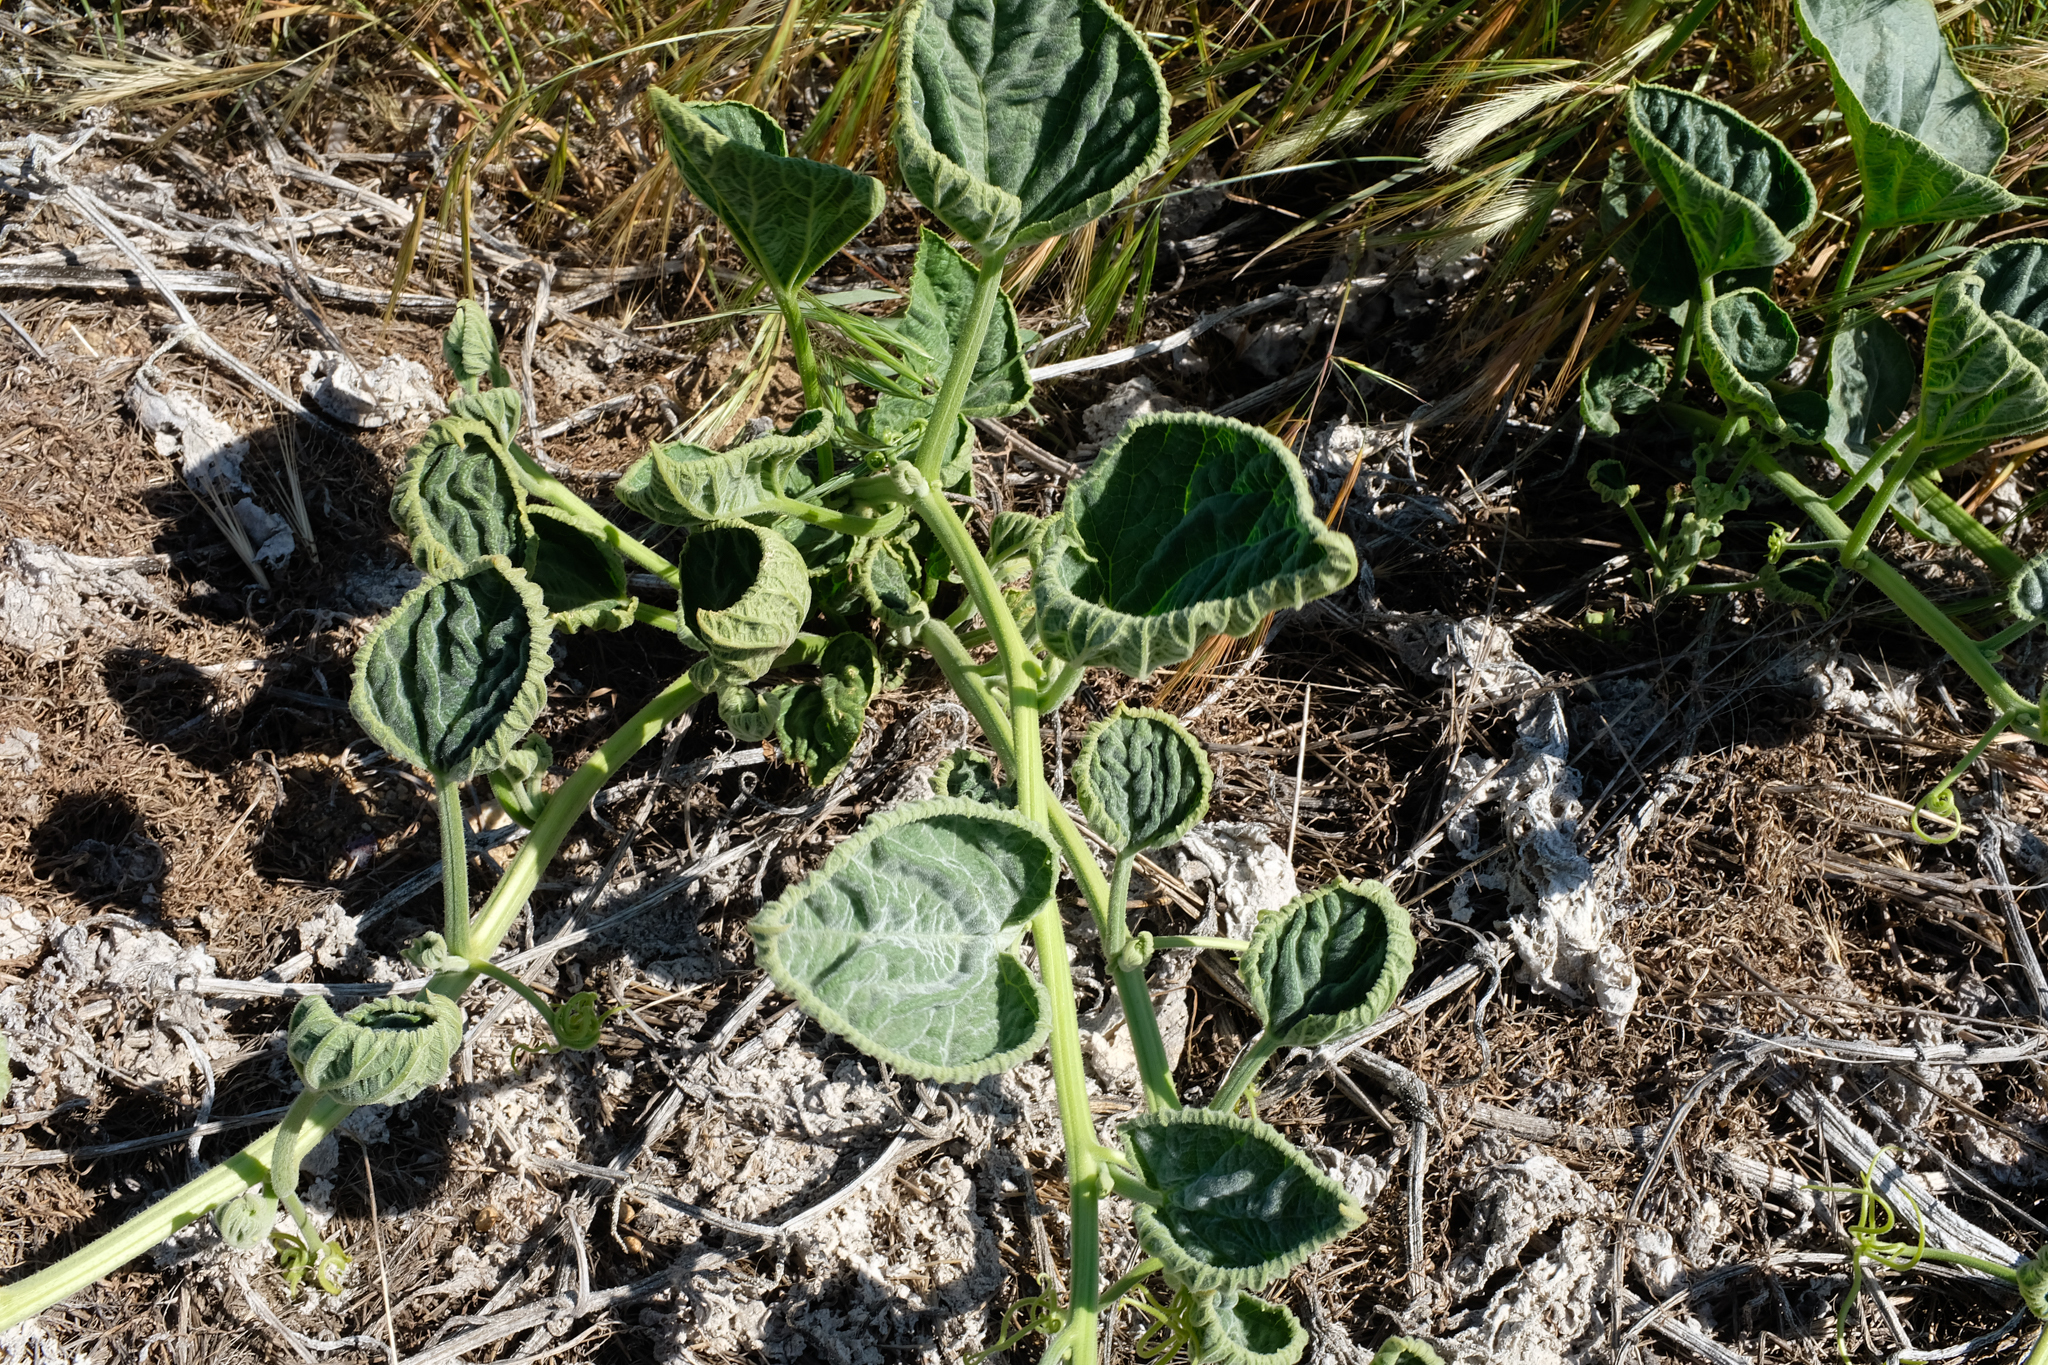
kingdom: Plantae
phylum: Tracheophyta
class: Magnoliopsida
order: Cucurbitales
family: Cucurbitaceae
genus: Cucurbita
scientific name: Cucurbita foetidissima
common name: Buffalo gourd
